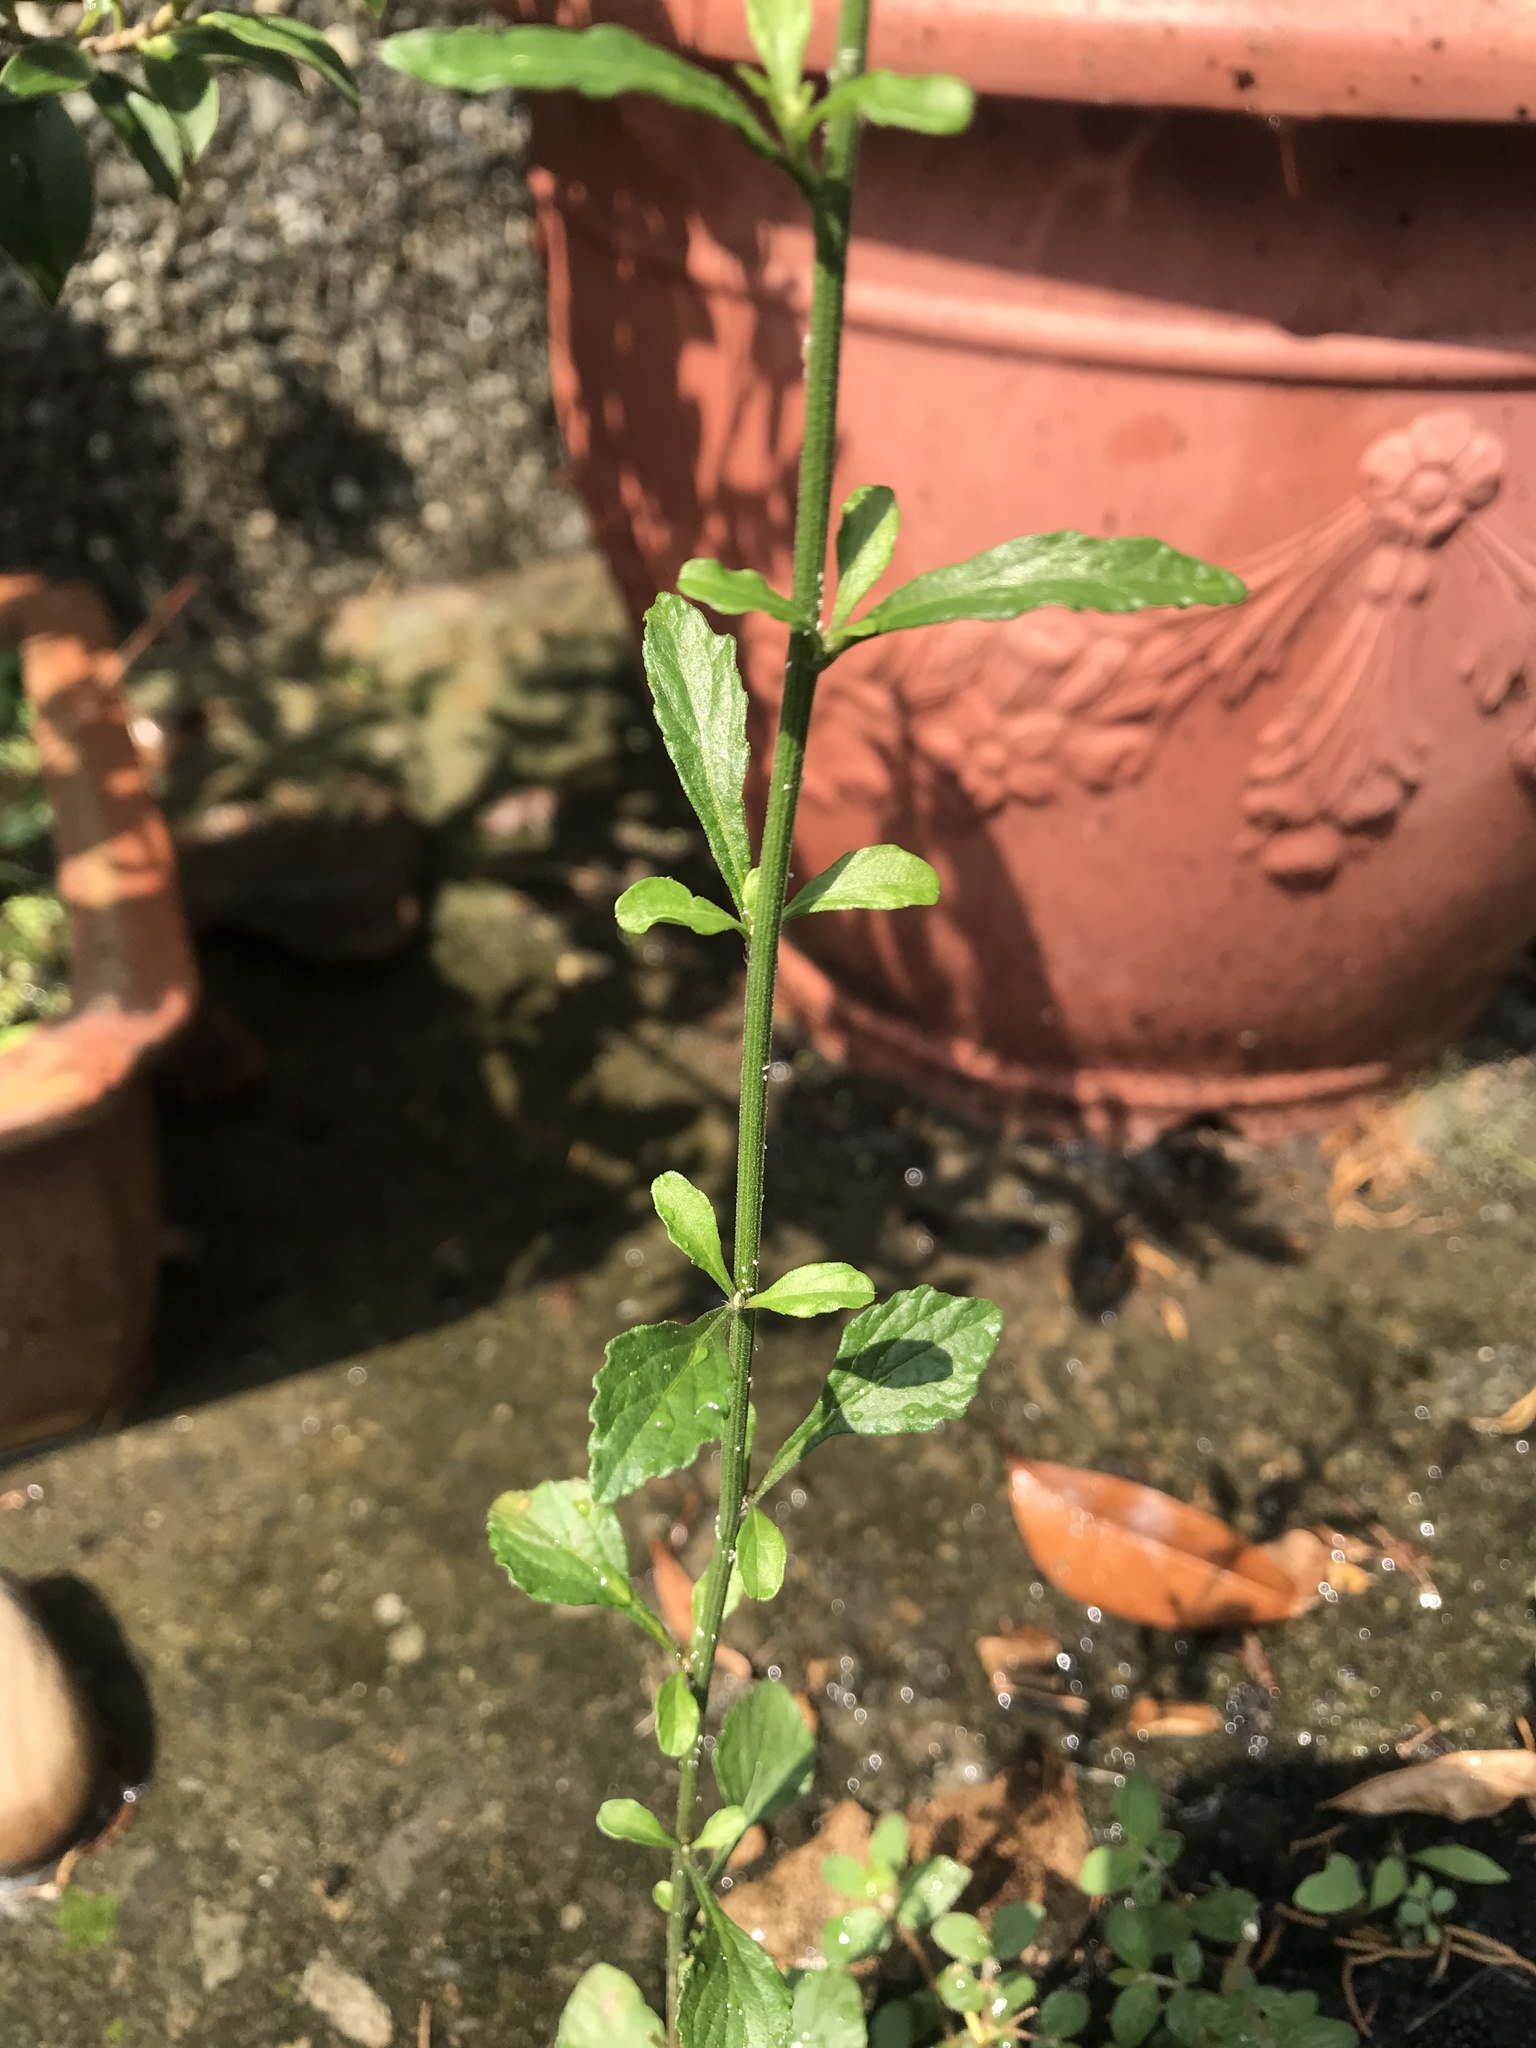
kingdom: Plantae
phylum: Tracheophyta
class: Magnoliopsida
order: Asterales
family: Asteraceae
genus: Cyanthillium
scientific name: Cyanthillium cinereum
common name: Little ironweed
